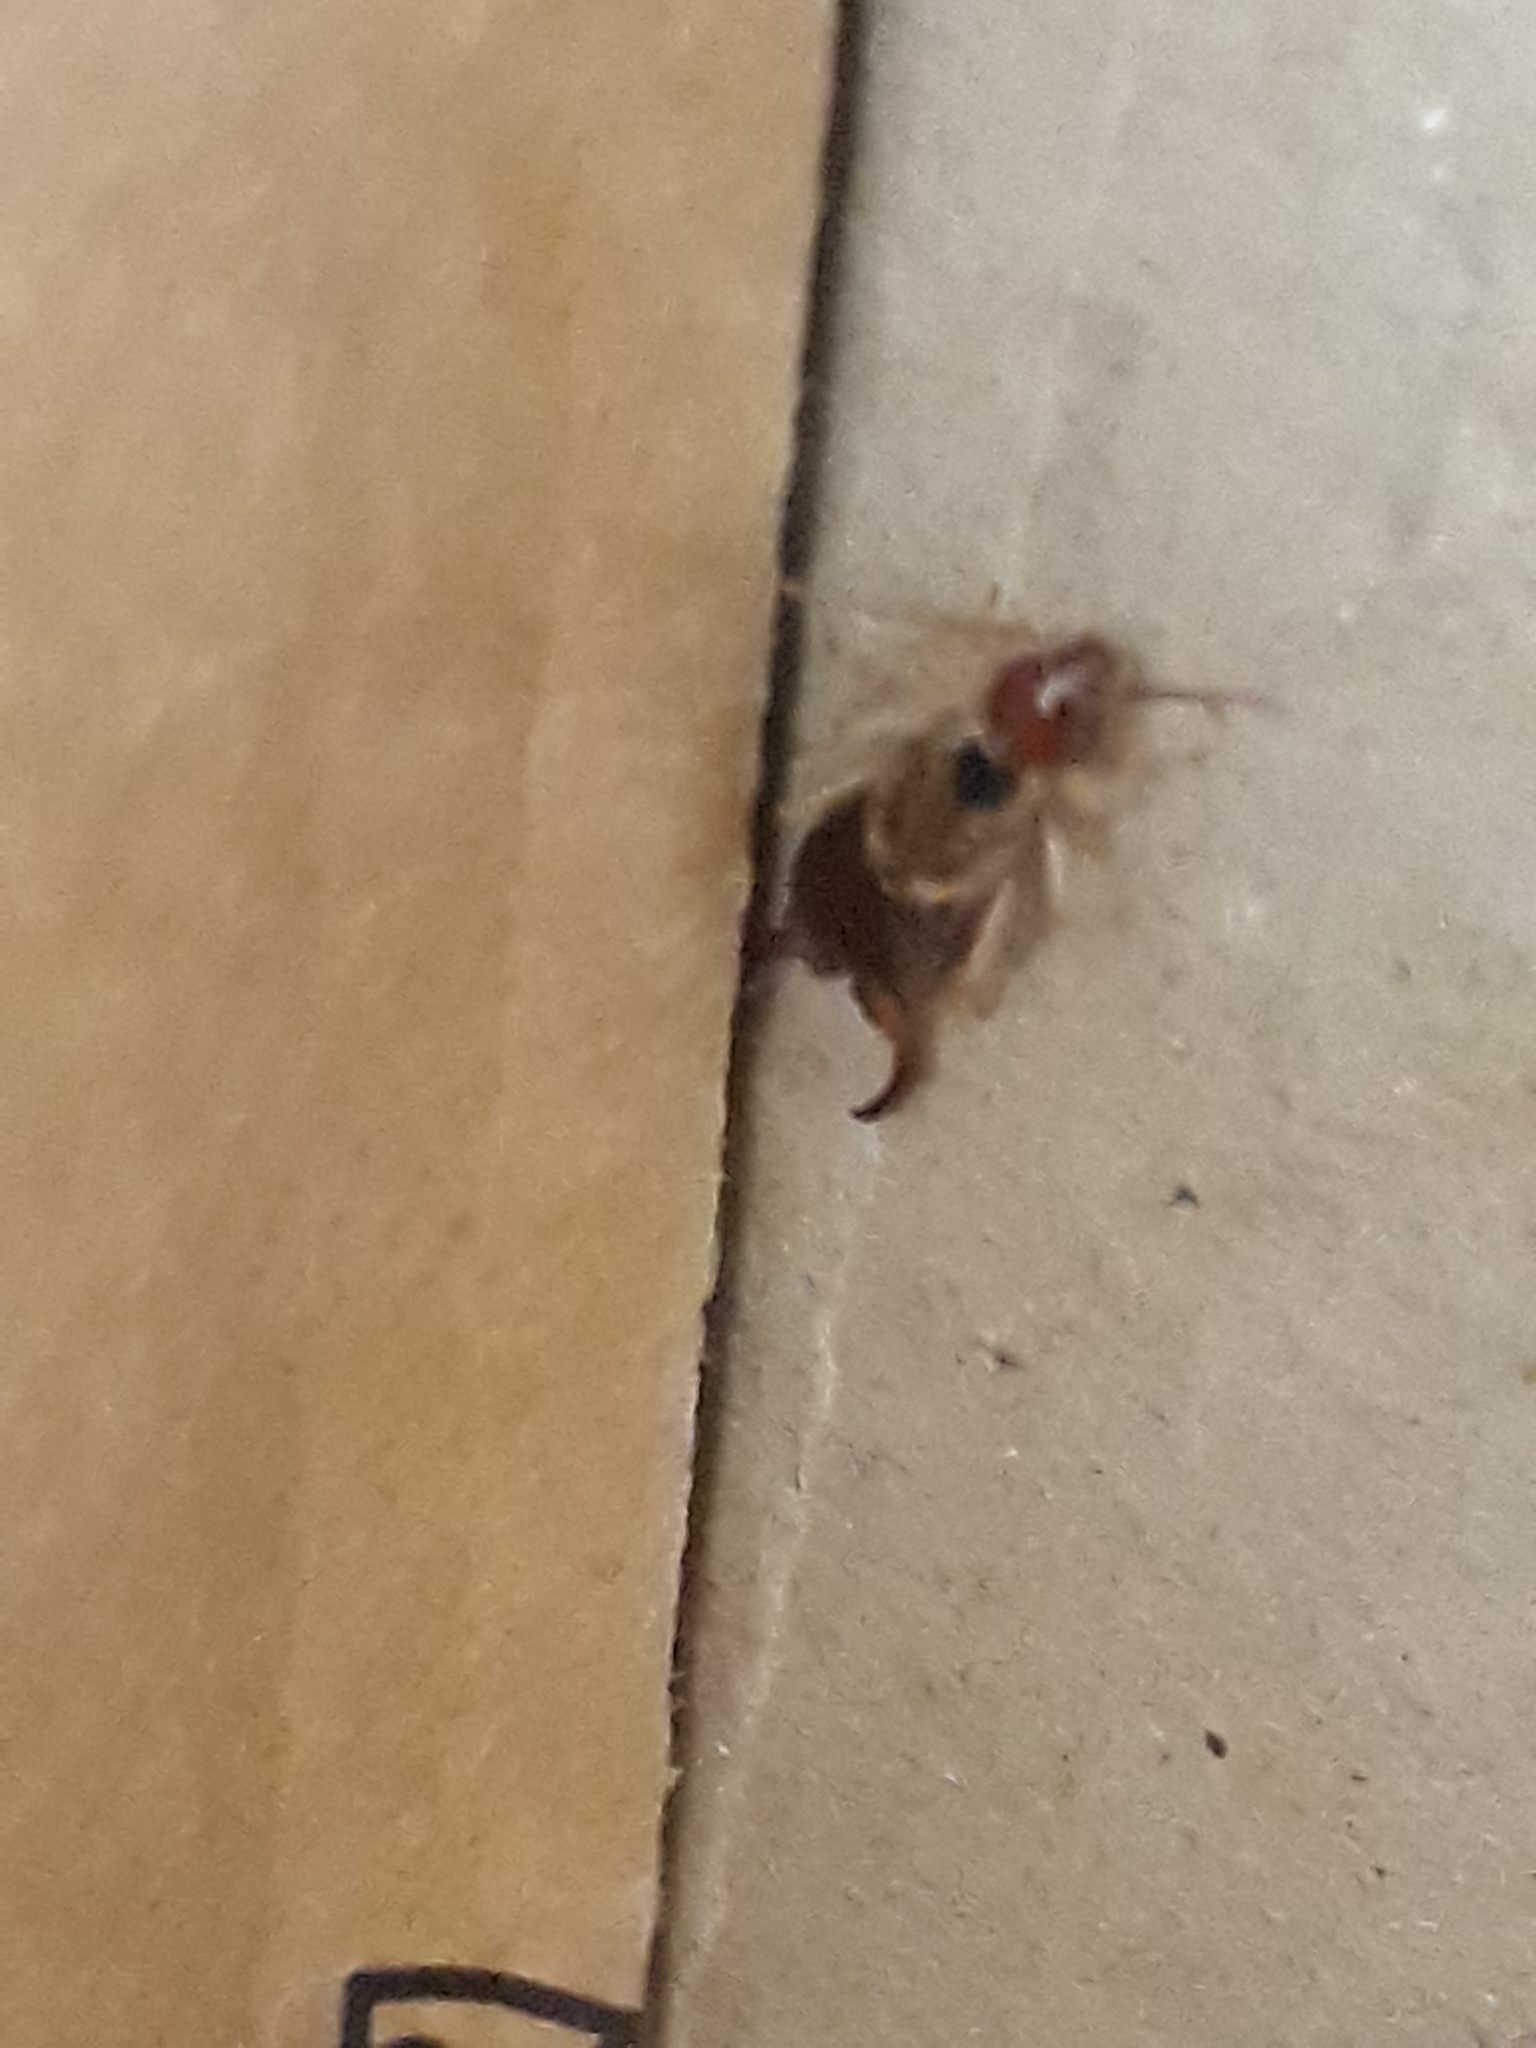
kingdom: Animalia
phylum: Arthropoda
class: Insecta
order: Dermaptera
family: Forficulidae
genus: Forficula
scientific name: Forficula
